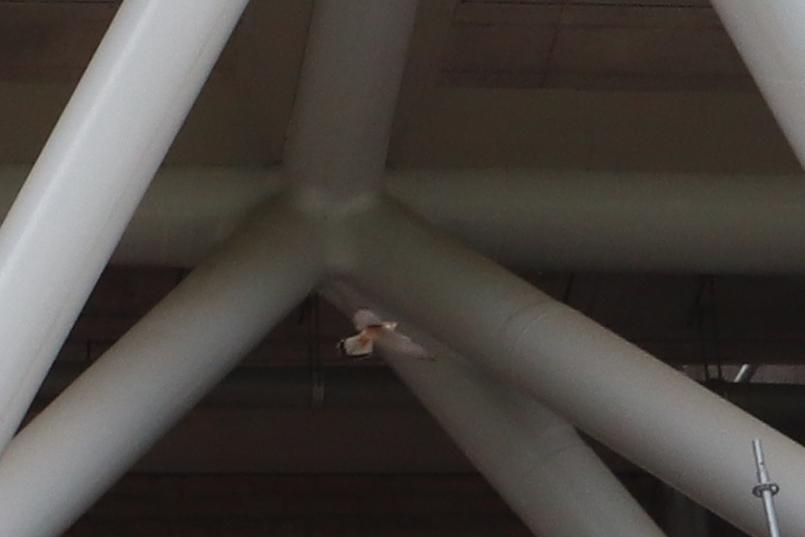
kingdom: Animalia
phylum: Chordata
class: Aves
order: Falconiformes
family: Falconidae
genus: Falco
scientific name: Falco tinnunculus
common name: Common kestrel
